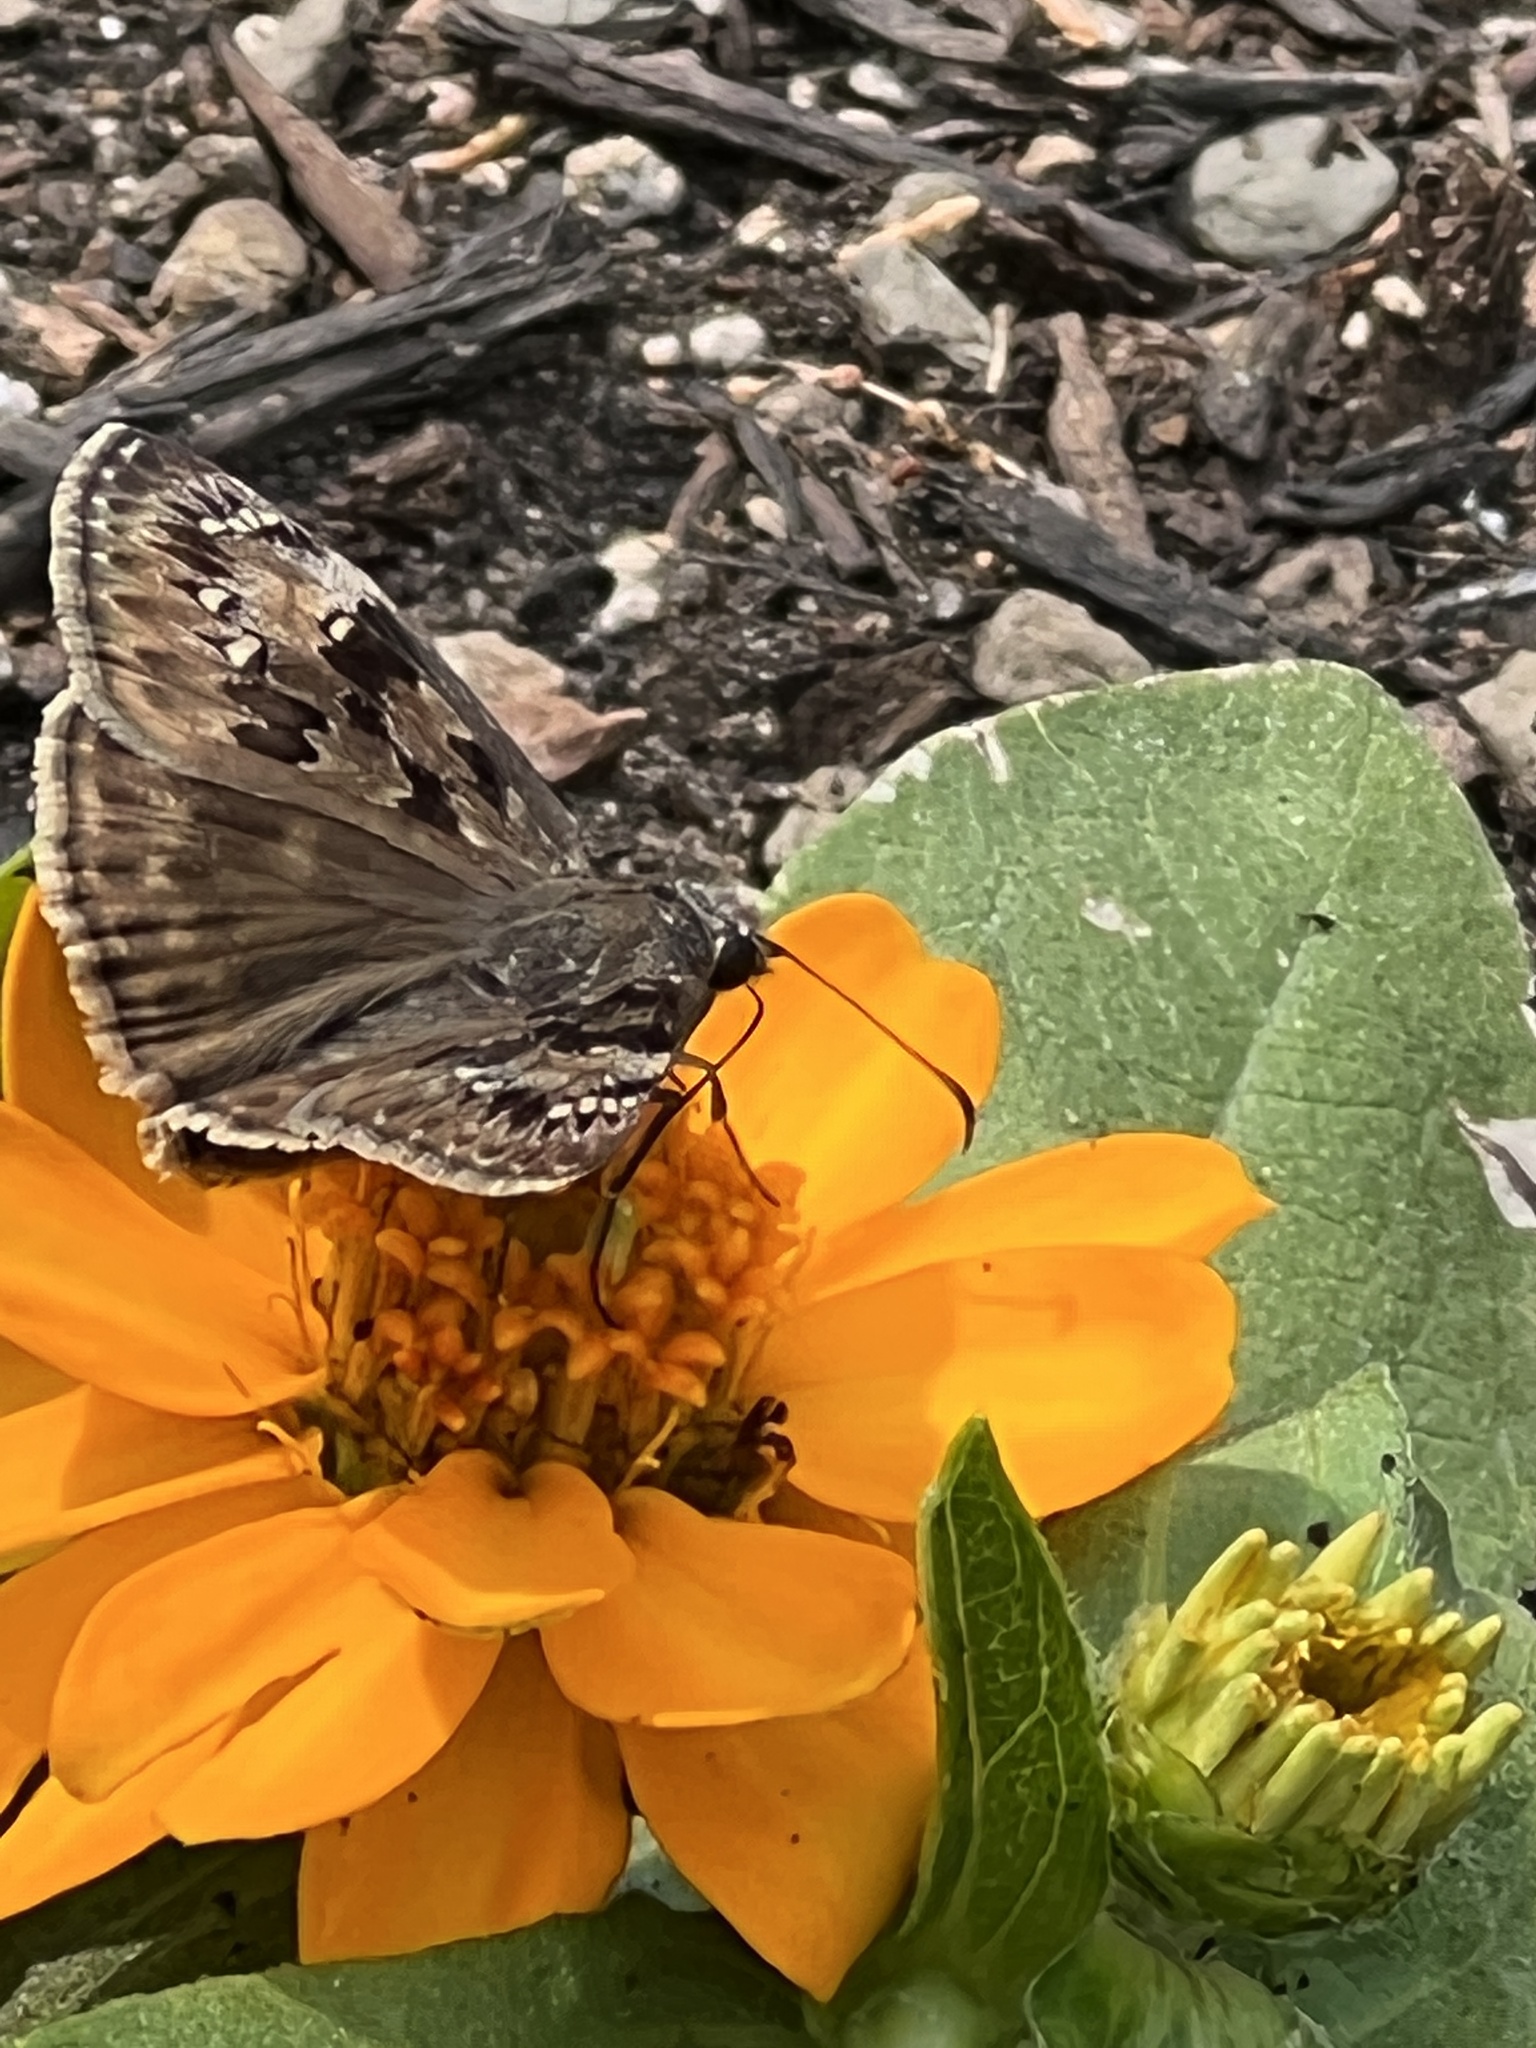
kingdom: Animalia
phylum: Arthropoda
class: Insecta
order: Lepidoptera
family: Hesperiidae
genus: Erynnis
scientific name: Erynnis horatius
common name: Horace's duskywing
